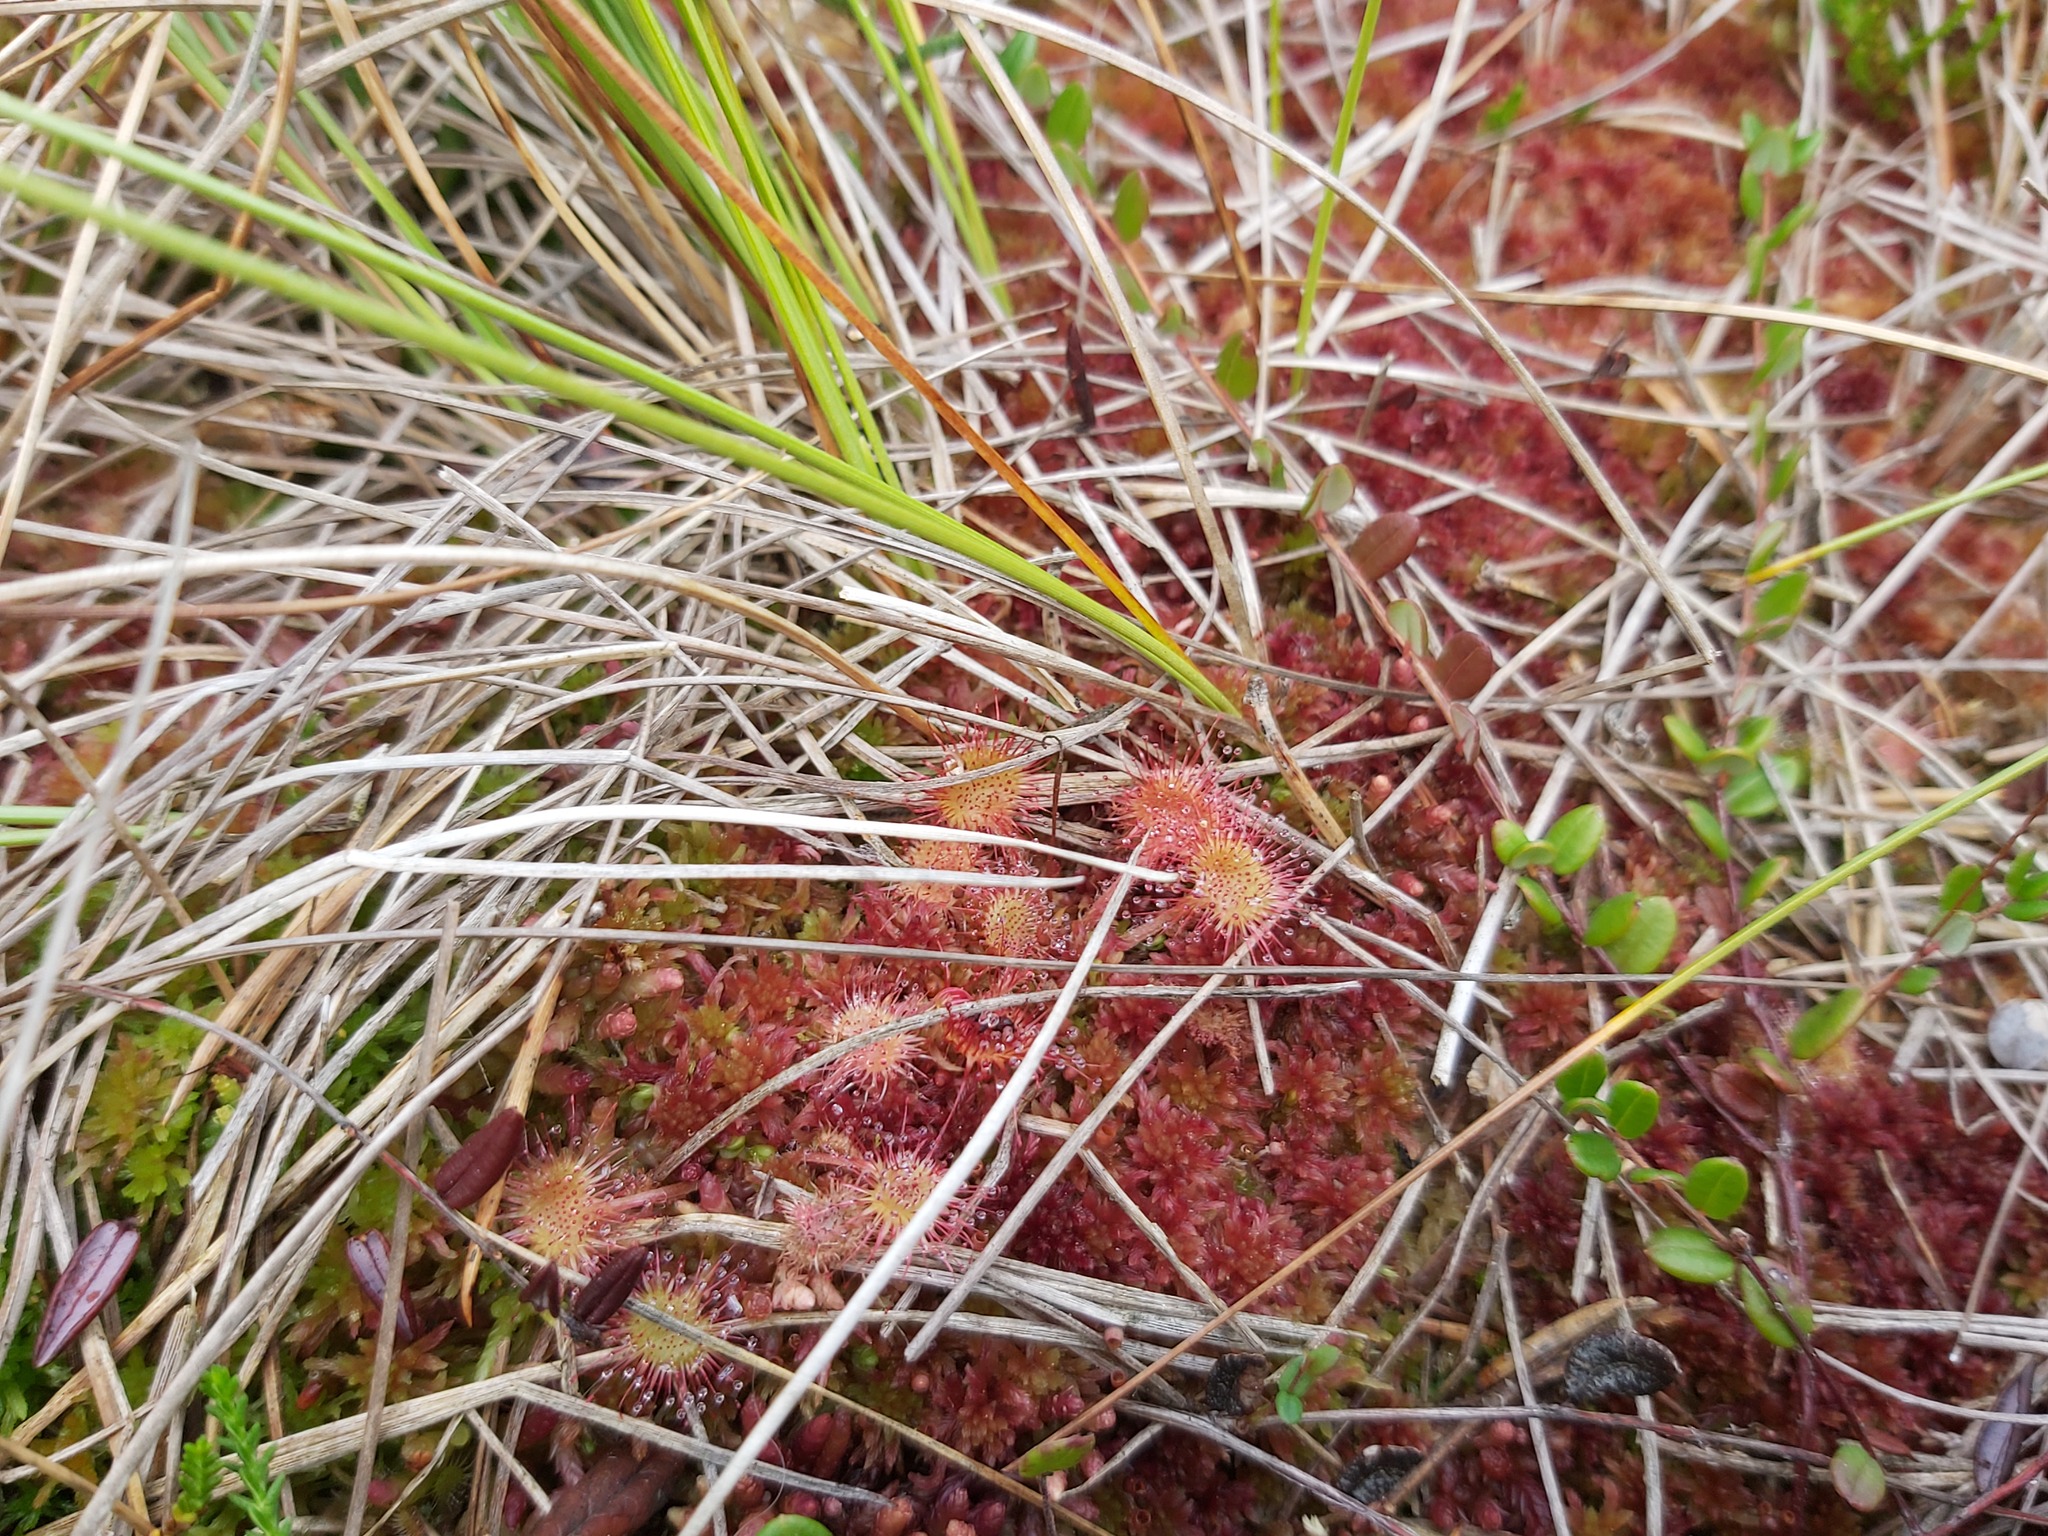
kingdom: Plantae
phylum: Tracheophyta
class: Magnoliopsida
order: Caryophyllales
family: Droseraceae
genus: Drosera
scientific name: Drosera rotundifolia
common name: Round-leaved sundew
